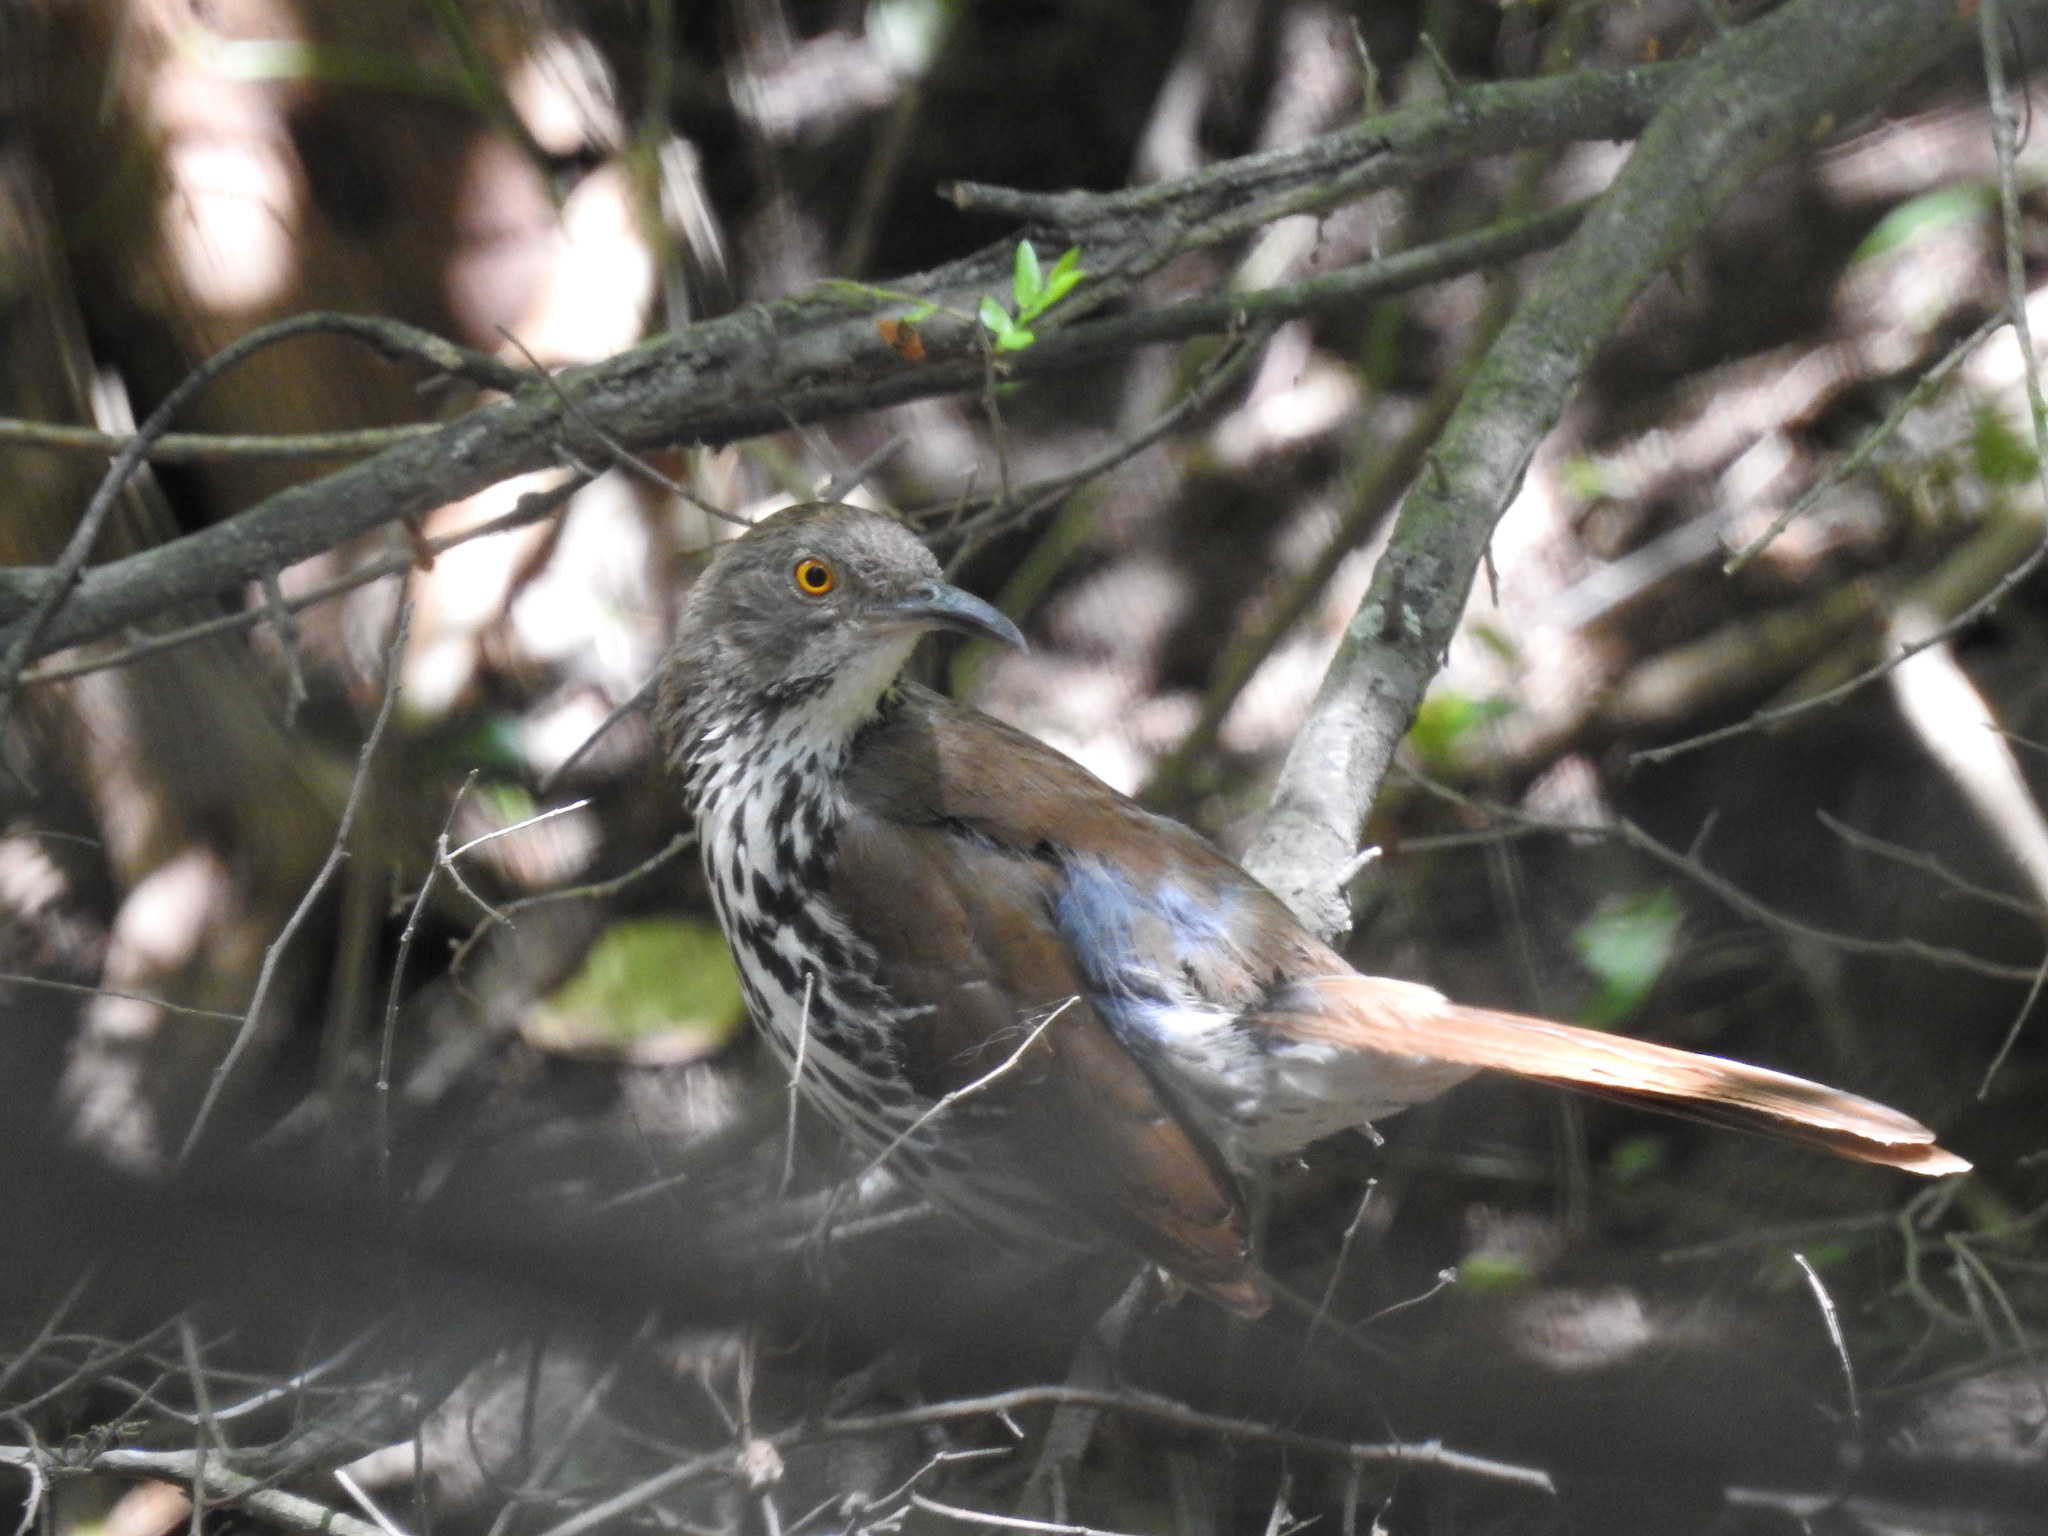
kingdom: Animalia
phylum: Chordata
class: Aves
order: Passeriformes
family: Mimidae
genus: Toxostoma
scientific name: Toxostoma longirostre
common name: Long-billed thrasher
